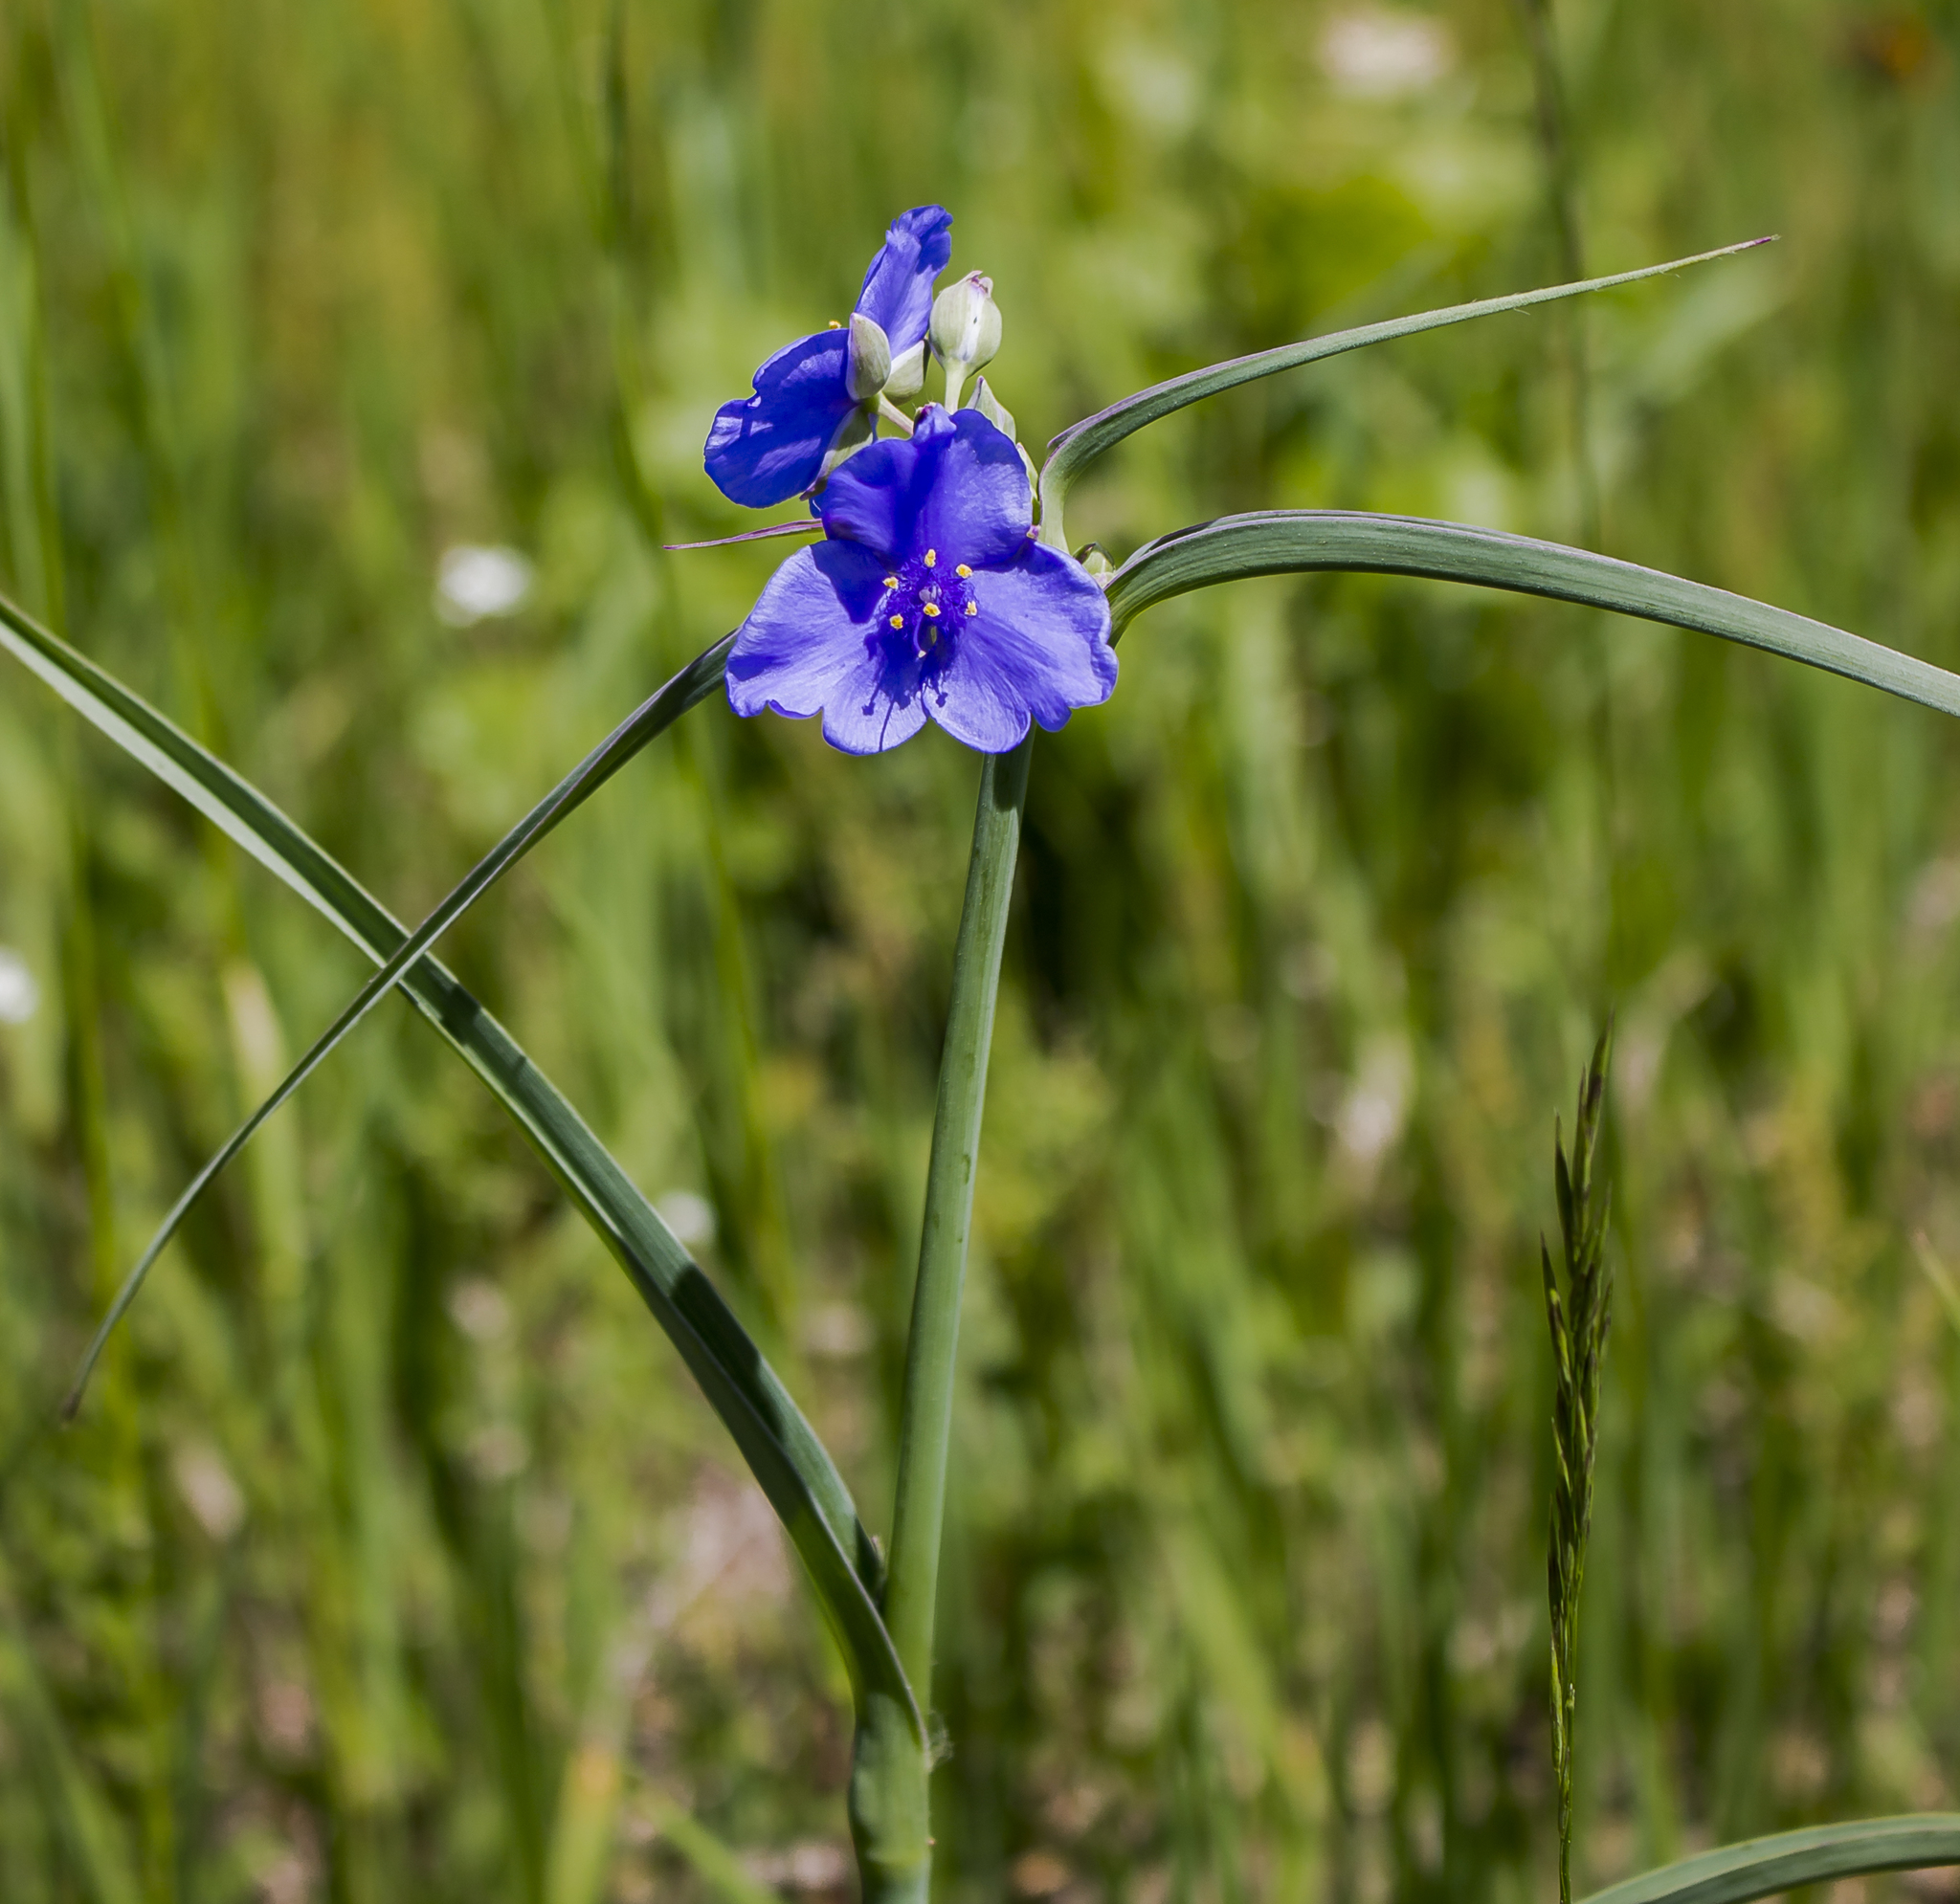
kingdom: Plantae
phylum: Tracheophyta
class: Liliopsida
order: Commelinales
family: Commelinaceae
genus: Tradescantia
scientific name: Tradescantia ohiensis
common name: Ohio spiderwort
